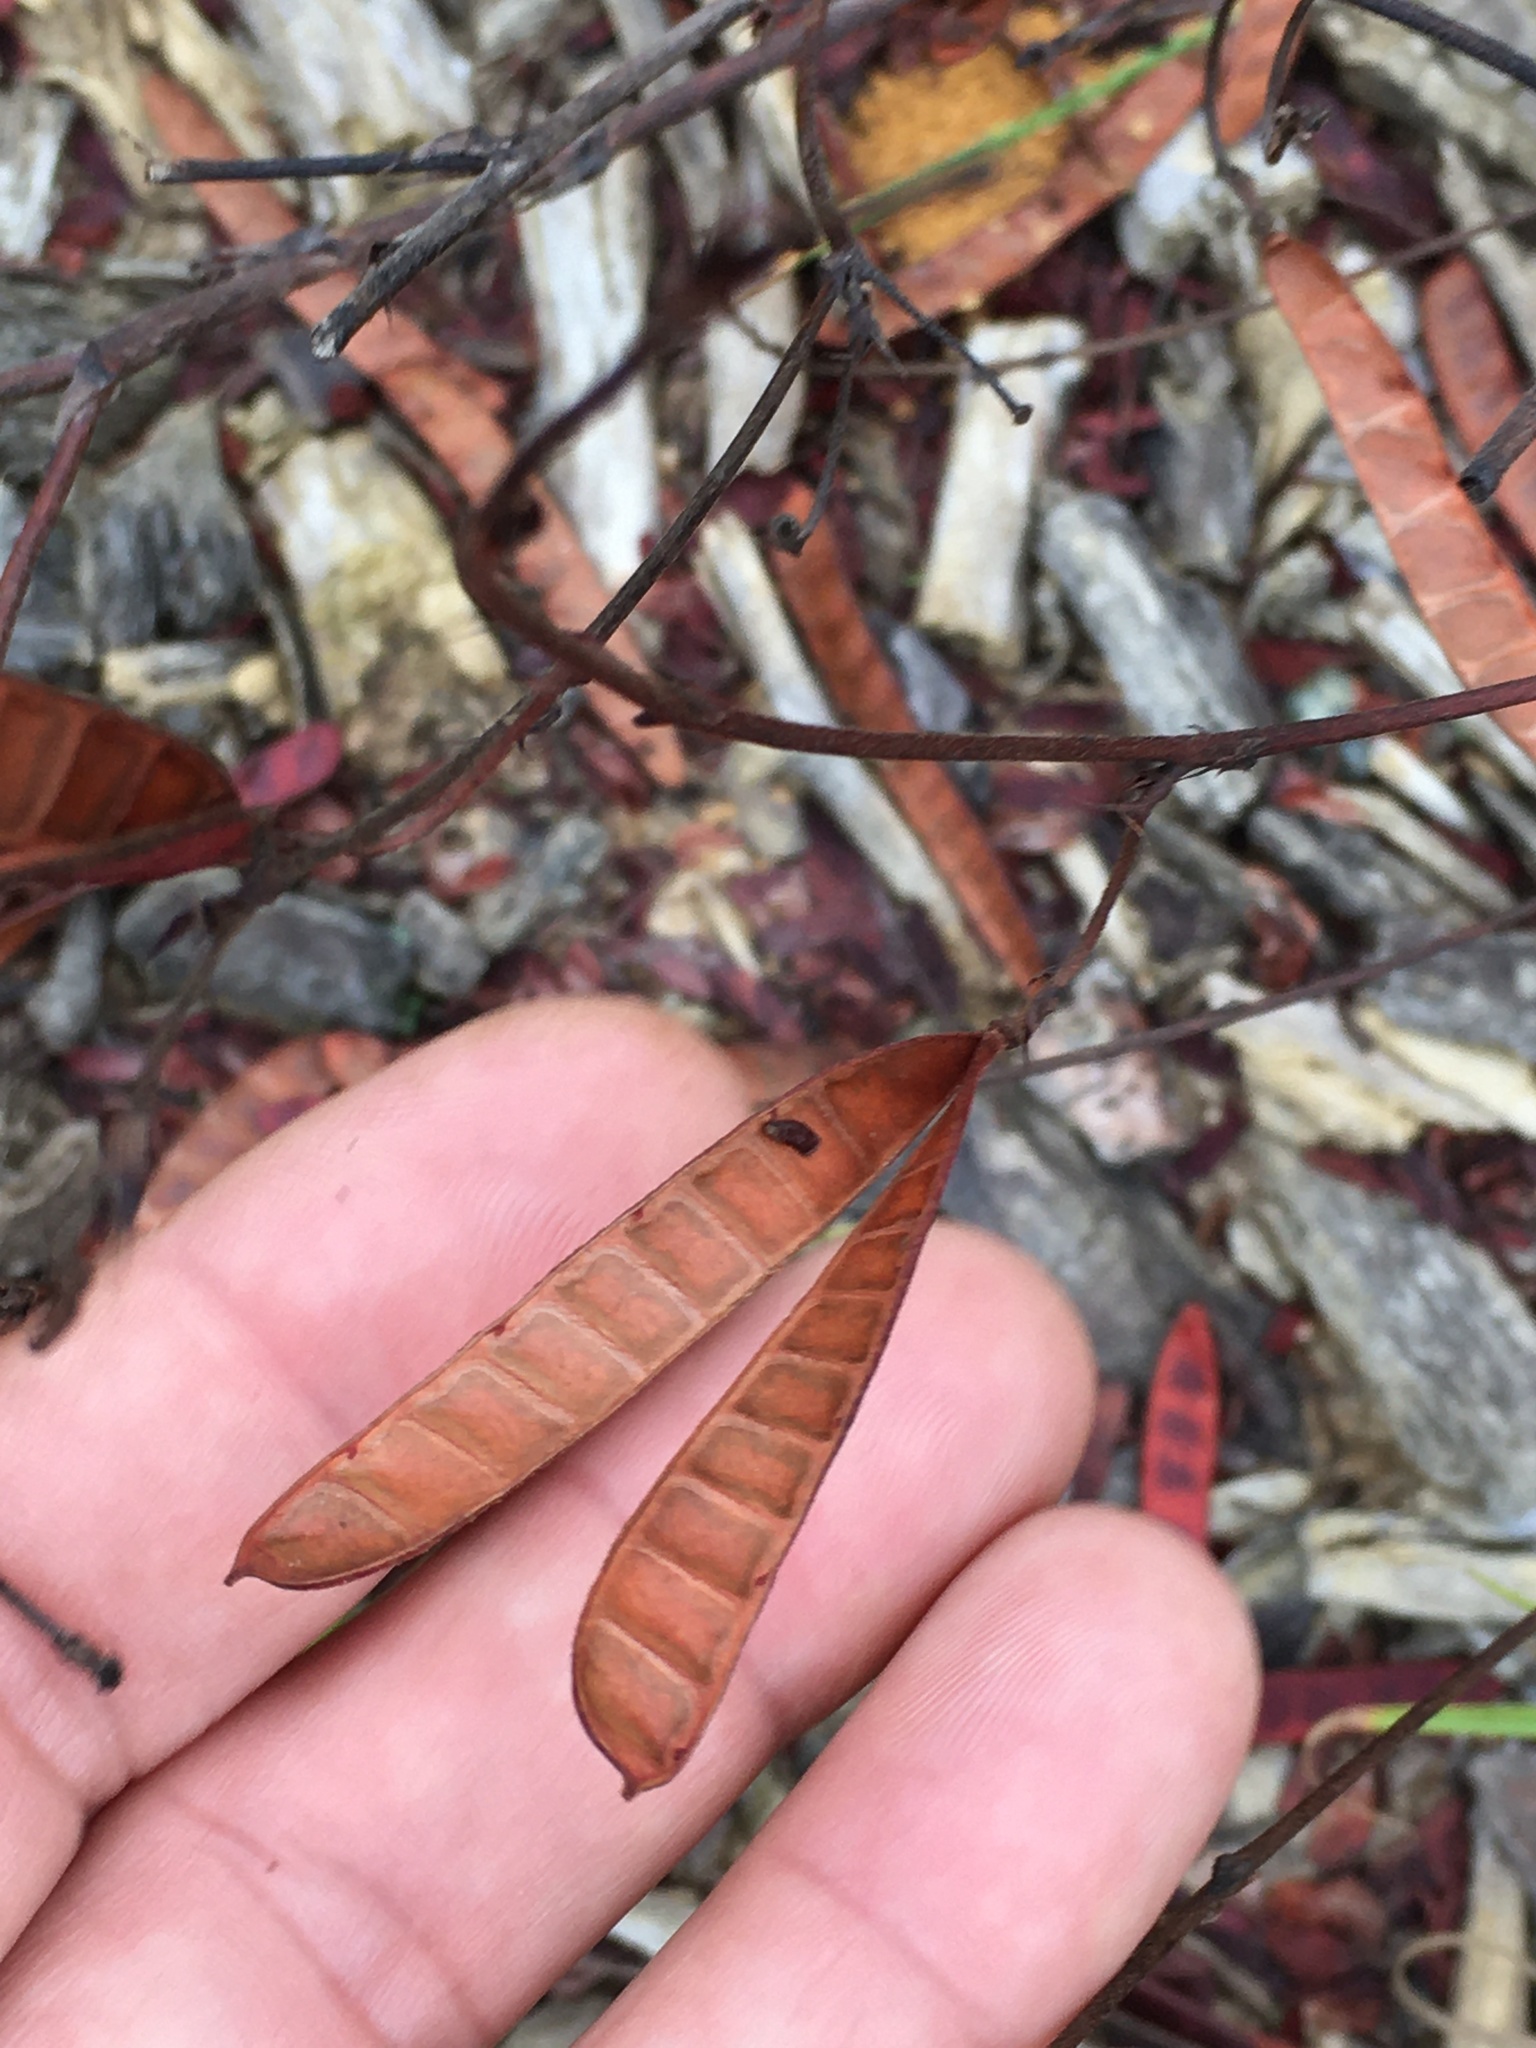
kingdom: Plantae
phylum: Tracheophyta
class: Magnoliopsida
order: Fabales
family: Fabaceae
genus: Chamaecrista
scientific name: Chamaecrista fasciculata
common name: Golden cassia
